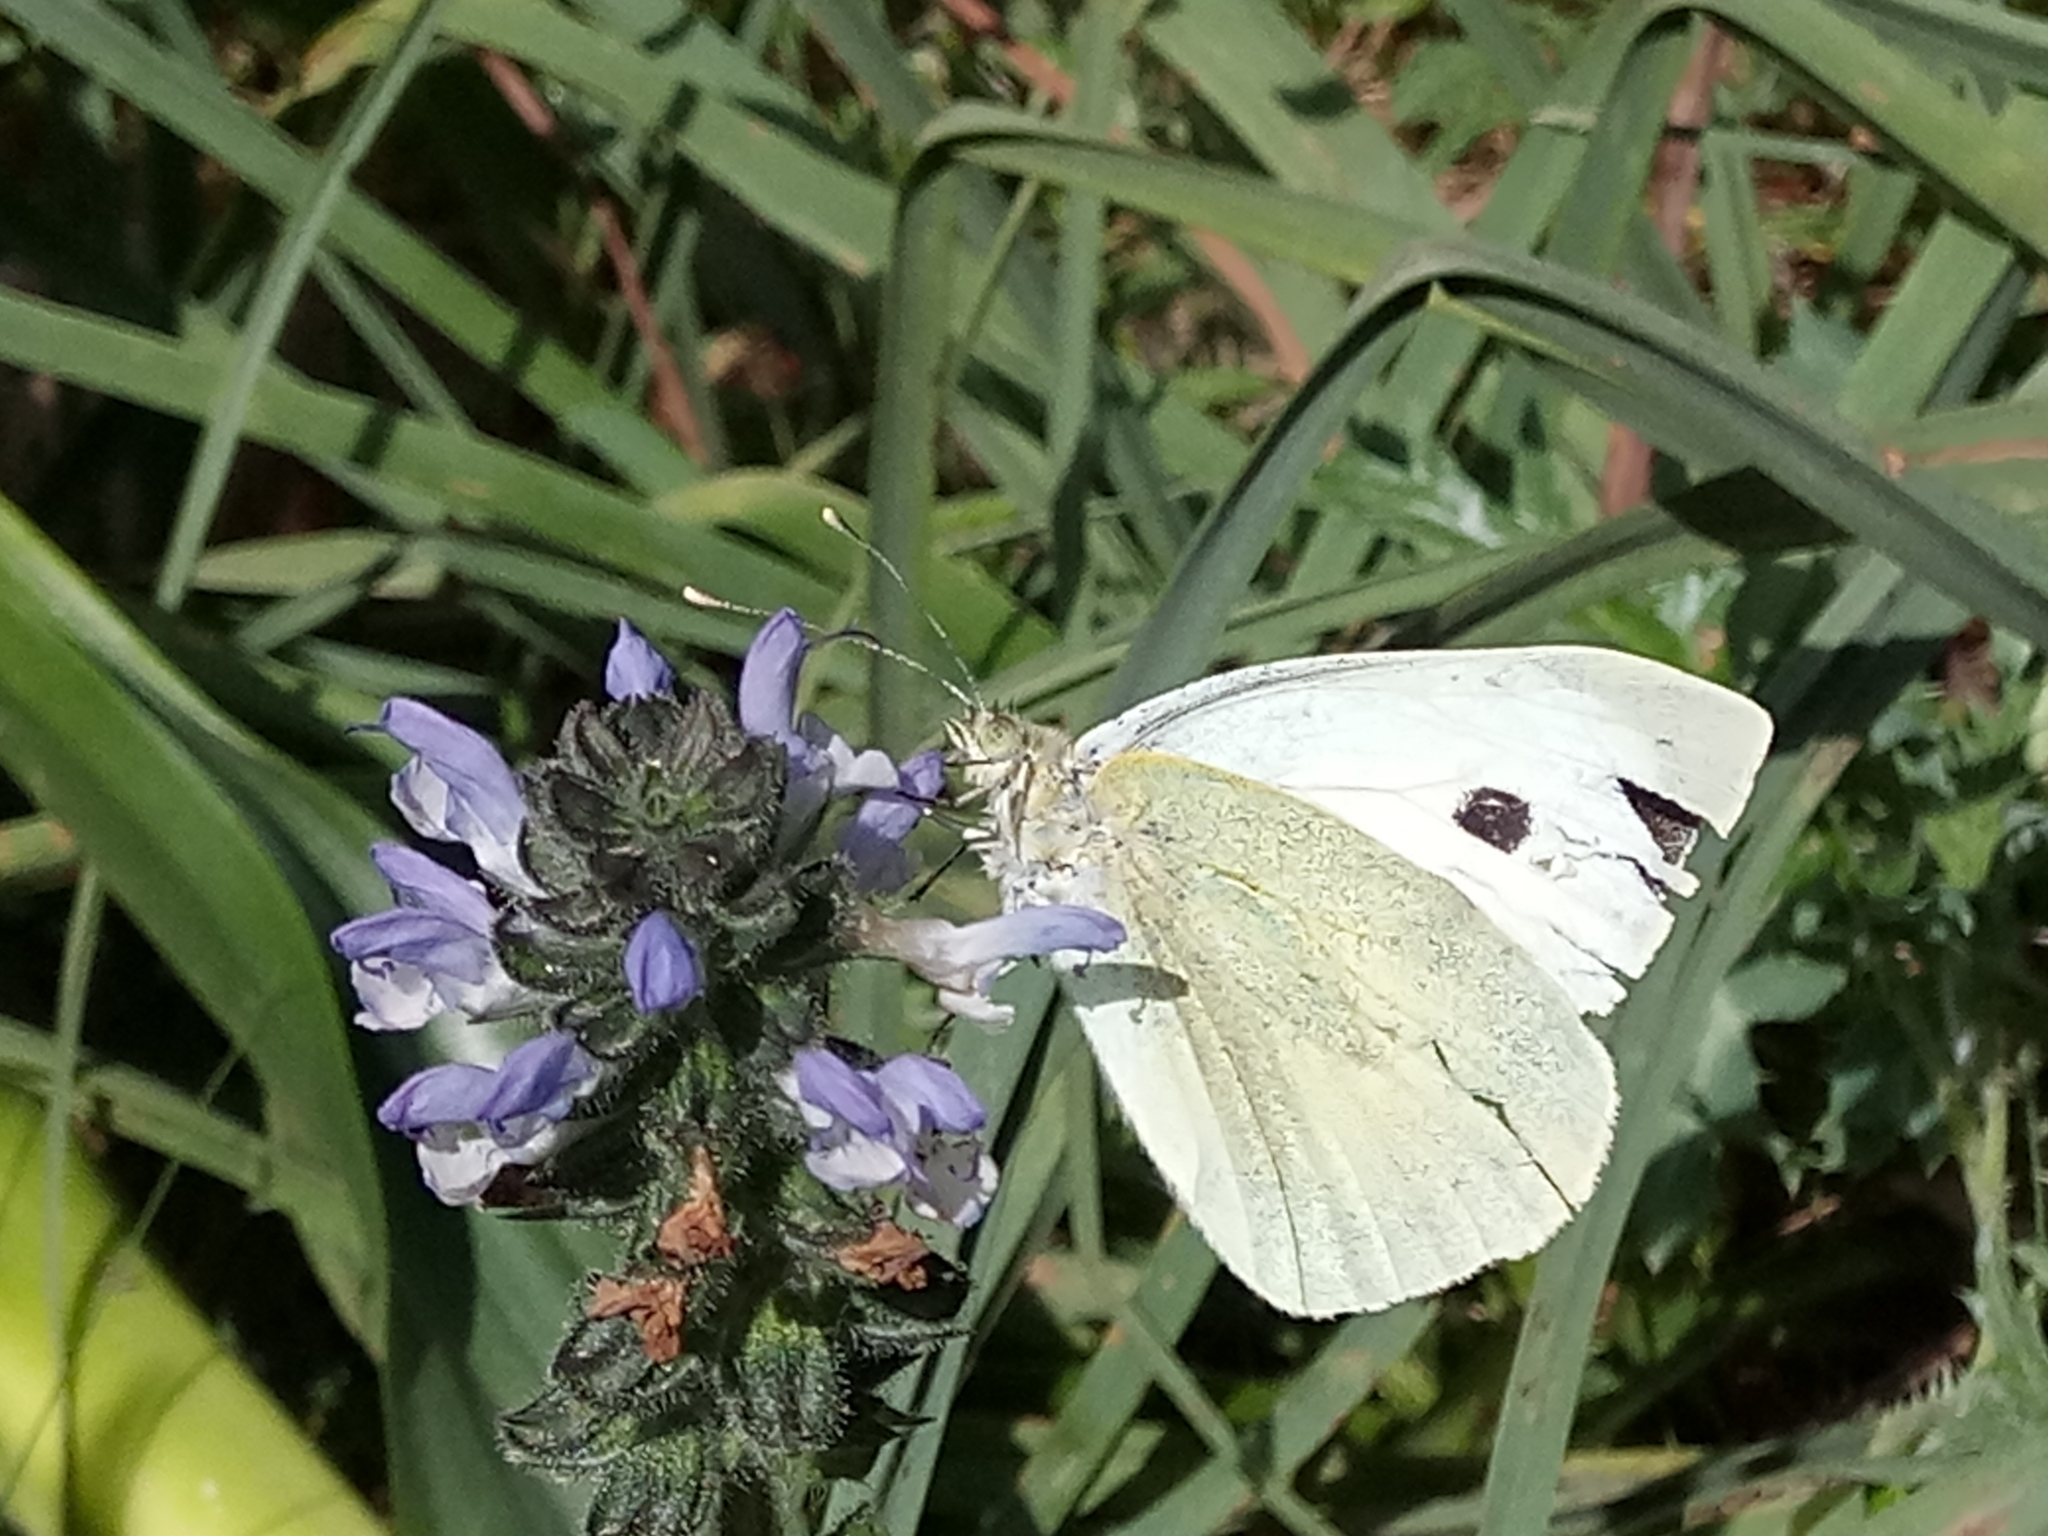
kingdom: Animalia
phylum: Arthropoda
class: Insecta
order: Lepidoptera
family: Pieridae
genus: Pieris
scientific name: Pieris brassicae
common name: Large white
